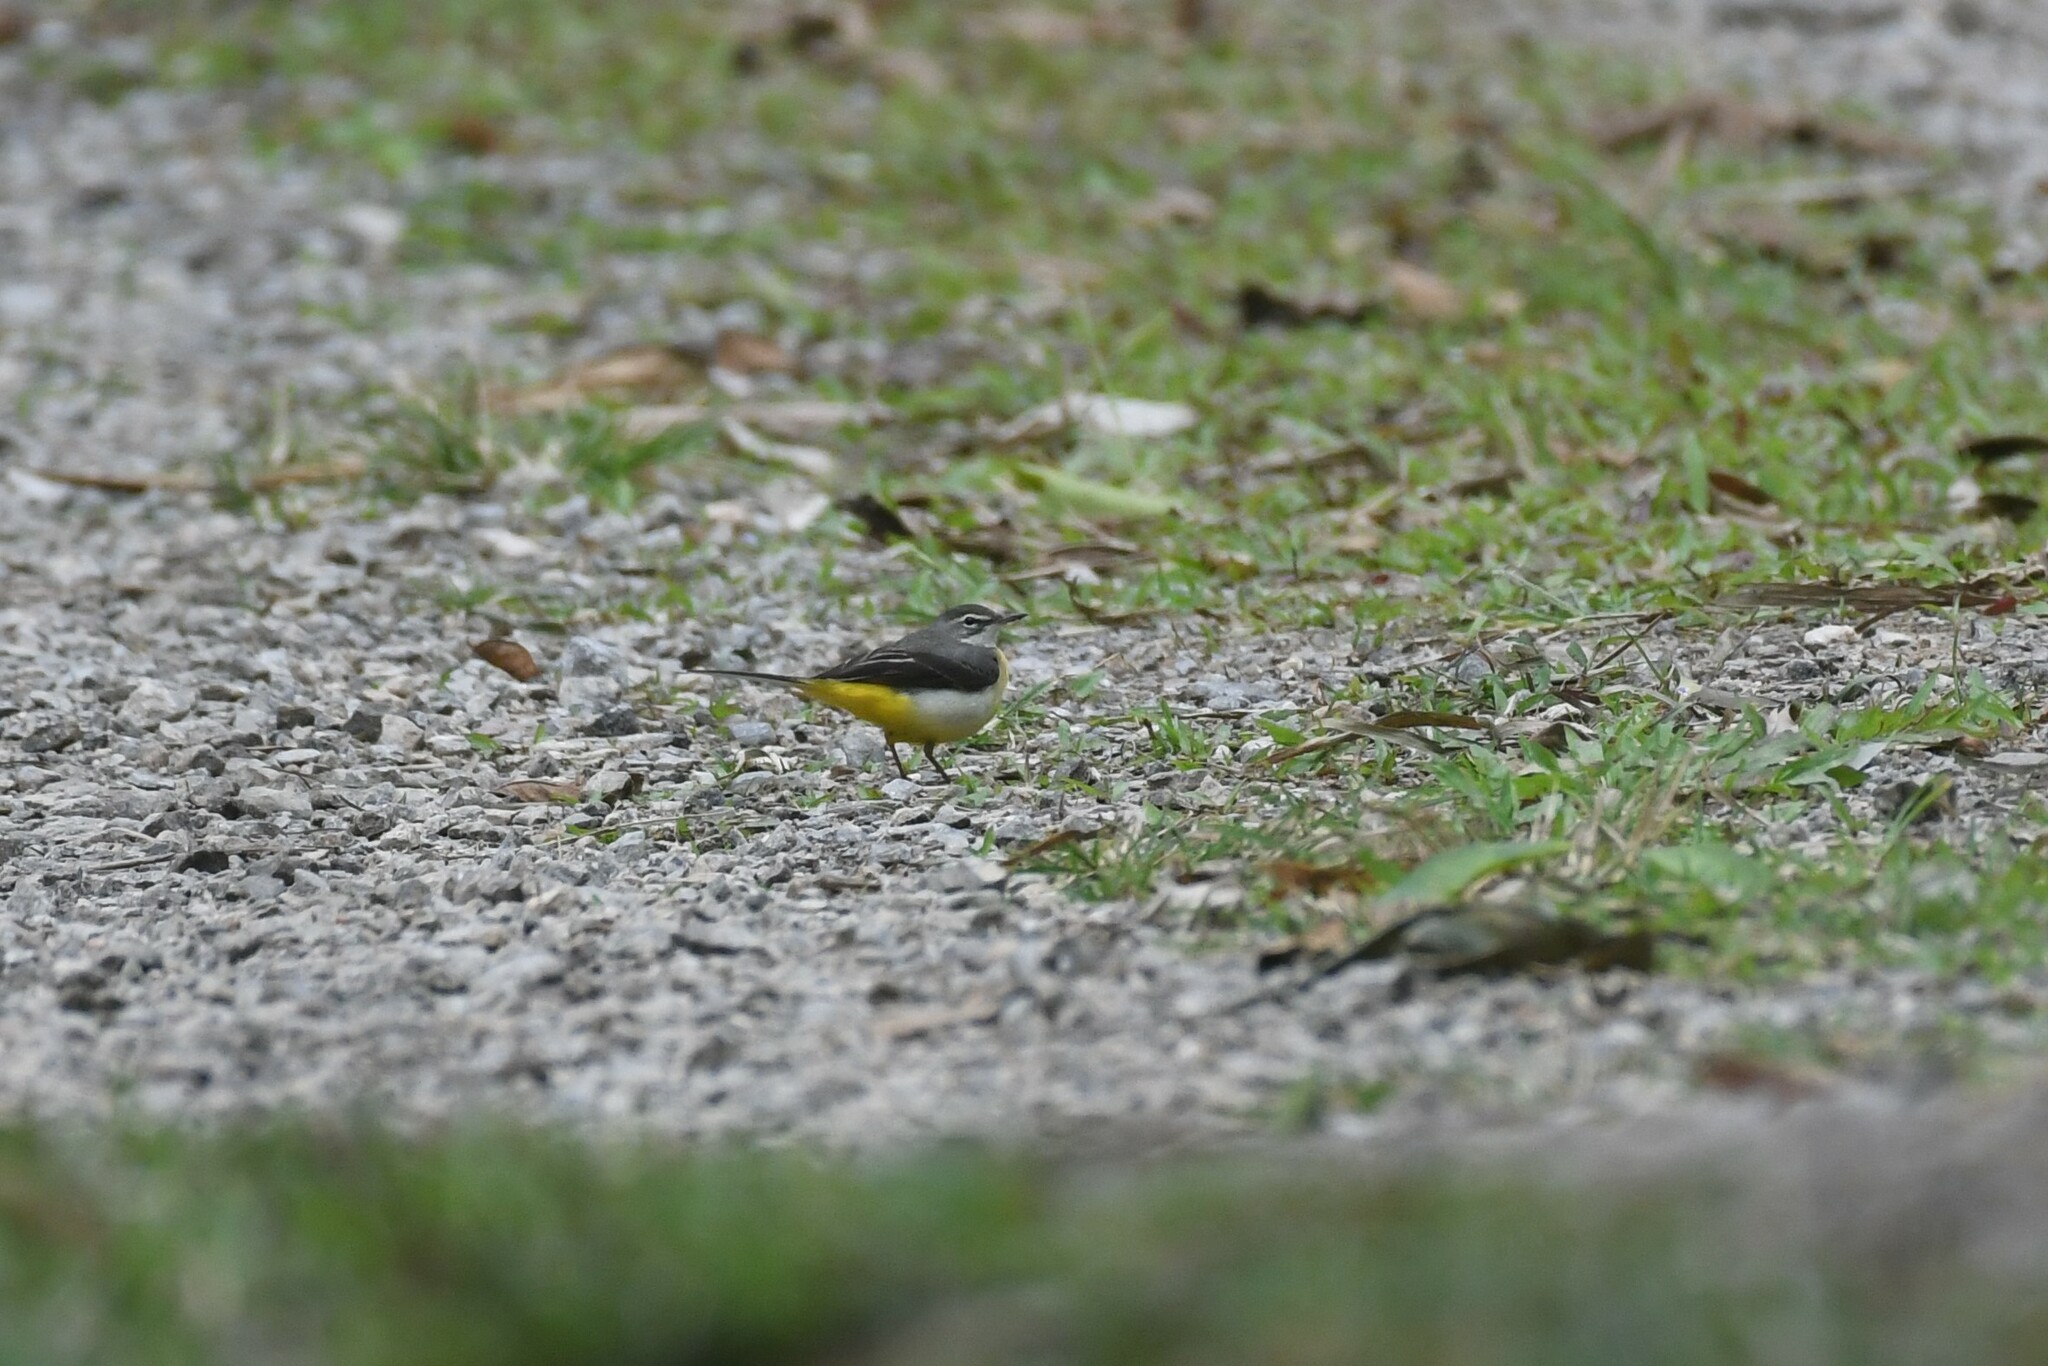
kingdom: Animalia
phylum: Chordata
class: Aves
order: Passeriformes
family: Motacillidae
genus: Motacilla
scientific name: Motacilla cinerea
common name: Grey wagtail
